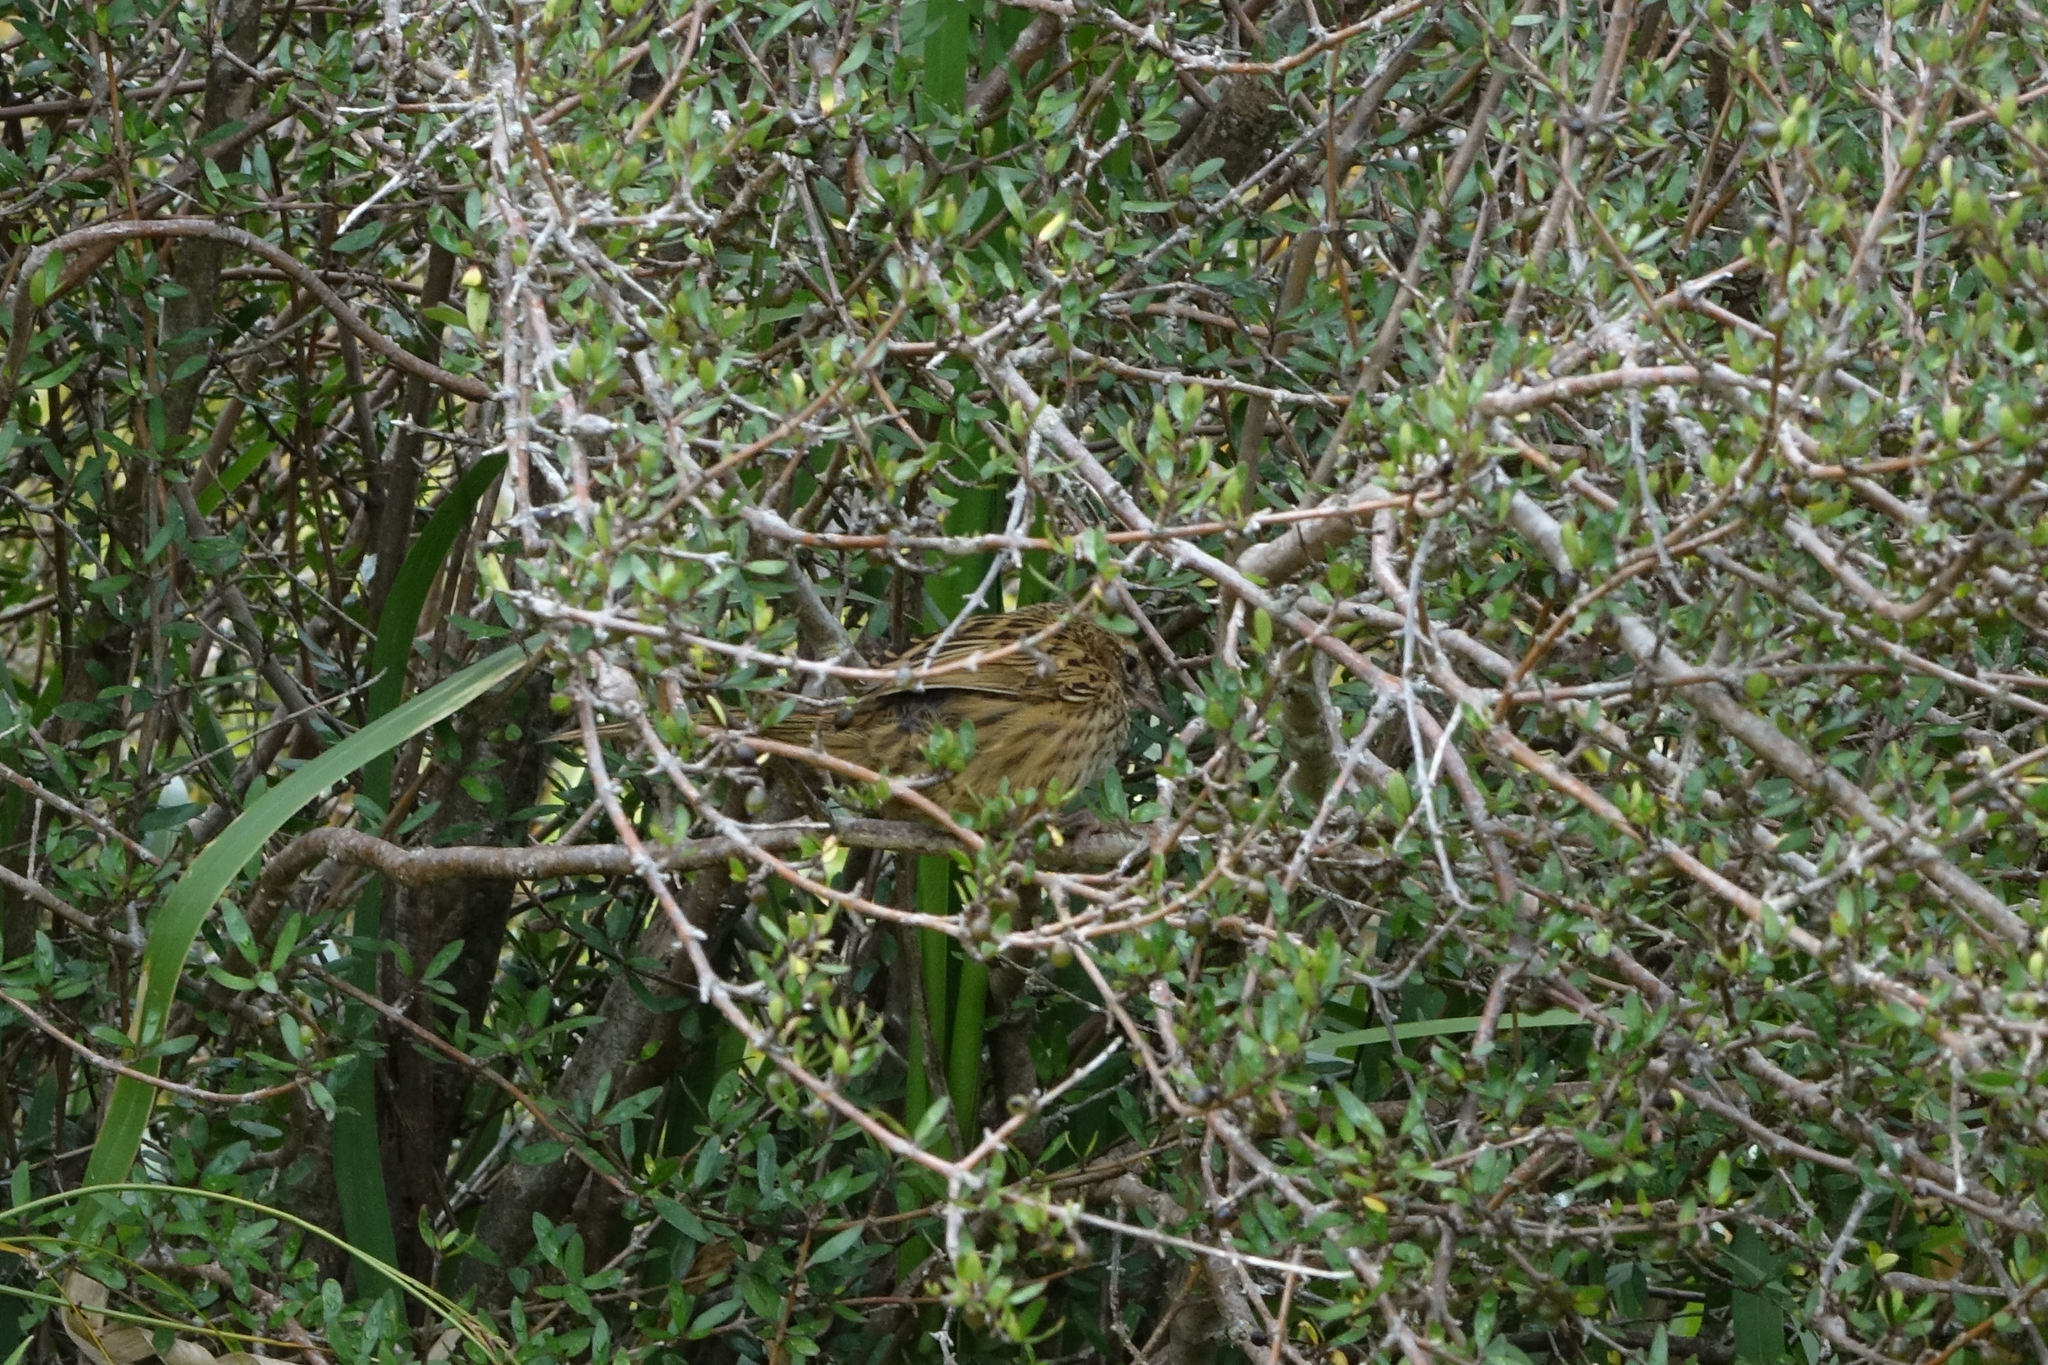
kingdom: Animalia
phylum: Chordata
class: Aves
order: Passeriformes
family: Locustellidae
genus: Poodytes
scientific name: Poodytes punctatus
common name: New zealand fernbird
